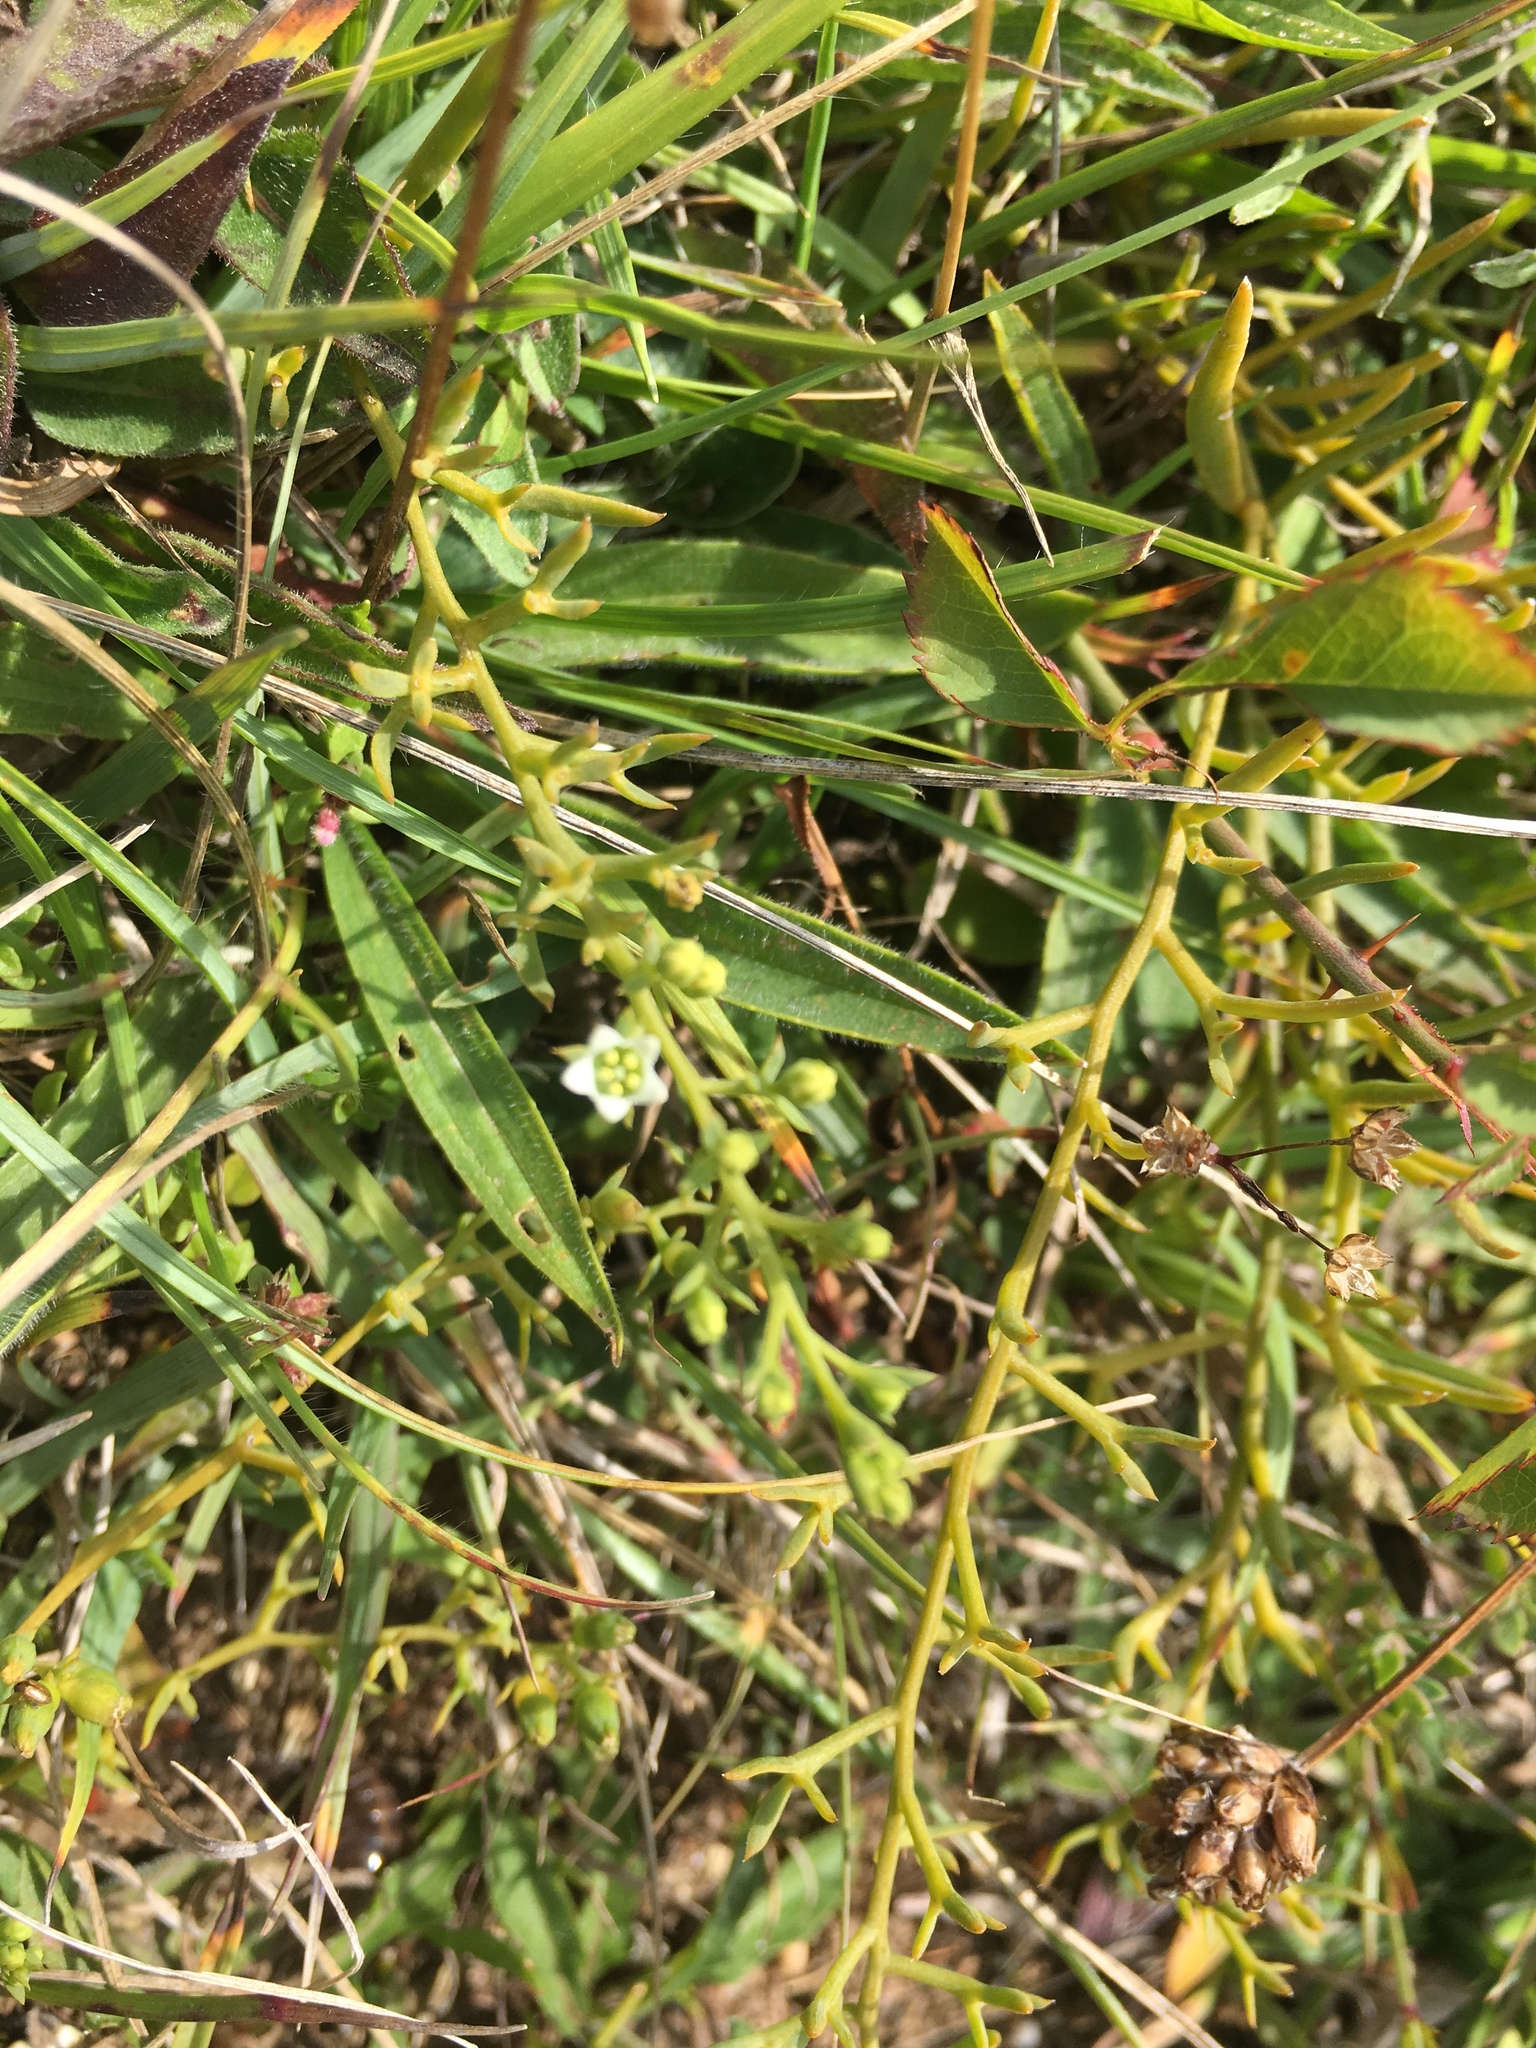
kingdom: Plantae
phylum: Tracheophyta
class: Magnoliopsida
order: Santalales
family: Thesiaceae
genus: Thesium
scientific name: Thesium humifusum
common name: Bastard-toadflax
